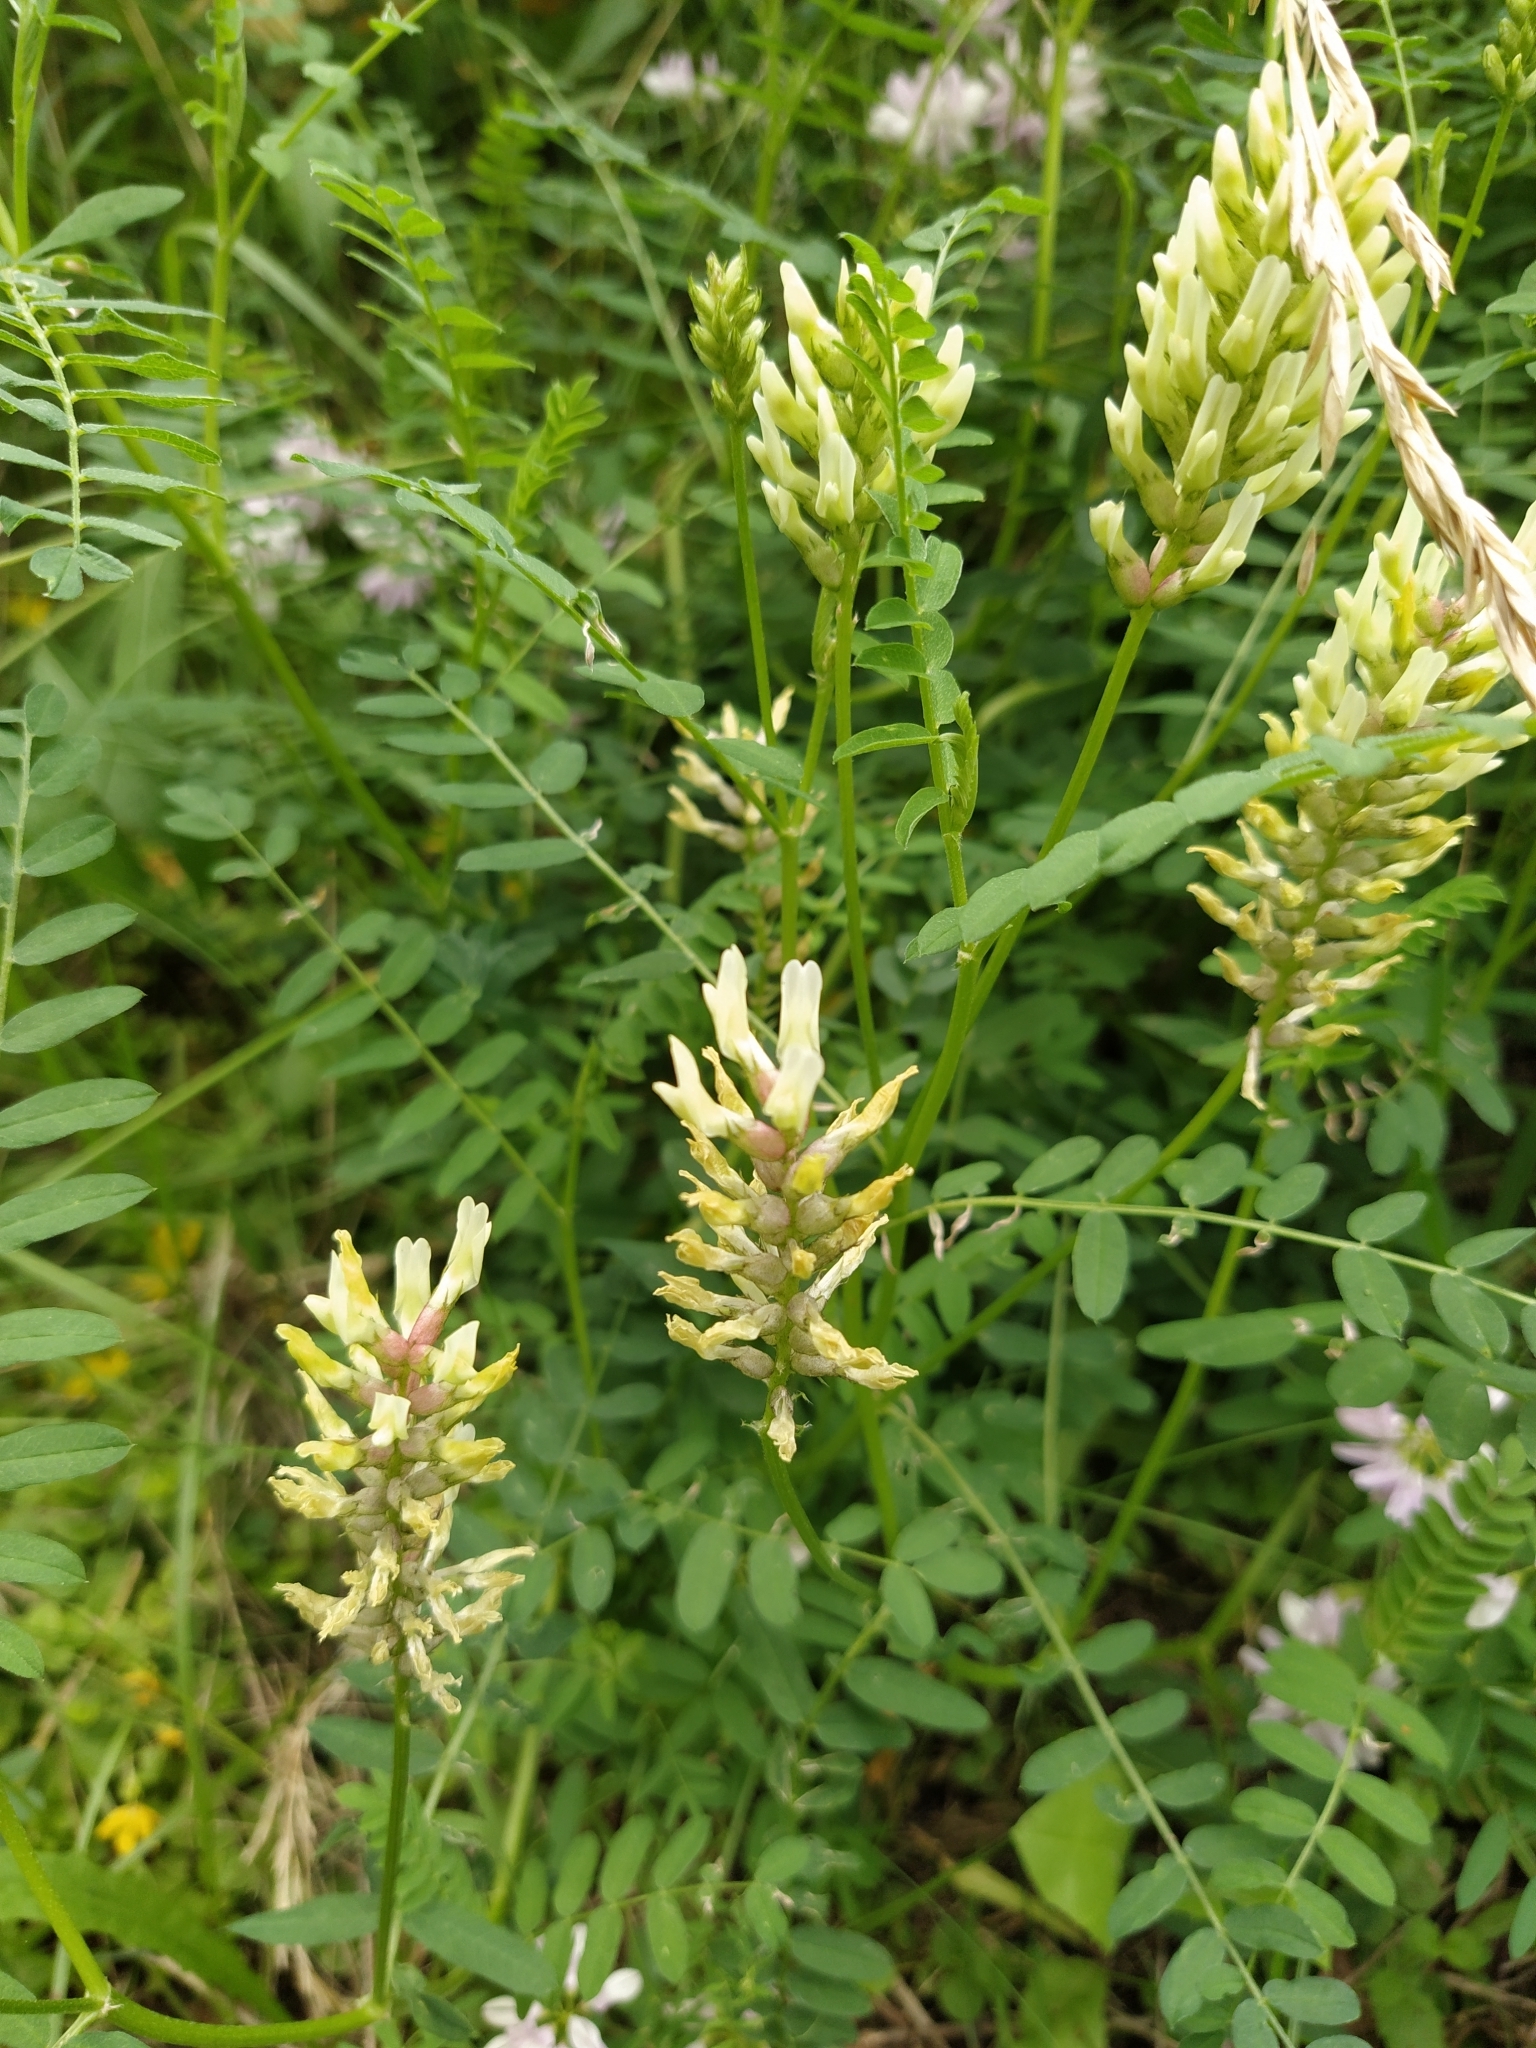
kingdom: Plantae
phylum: Tracheophyta
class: Magnoliopsida
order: Fabales
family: Fabaceae
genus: Astragalus
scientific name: Astragalus cicer
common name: Chick-pea milk-vetch
